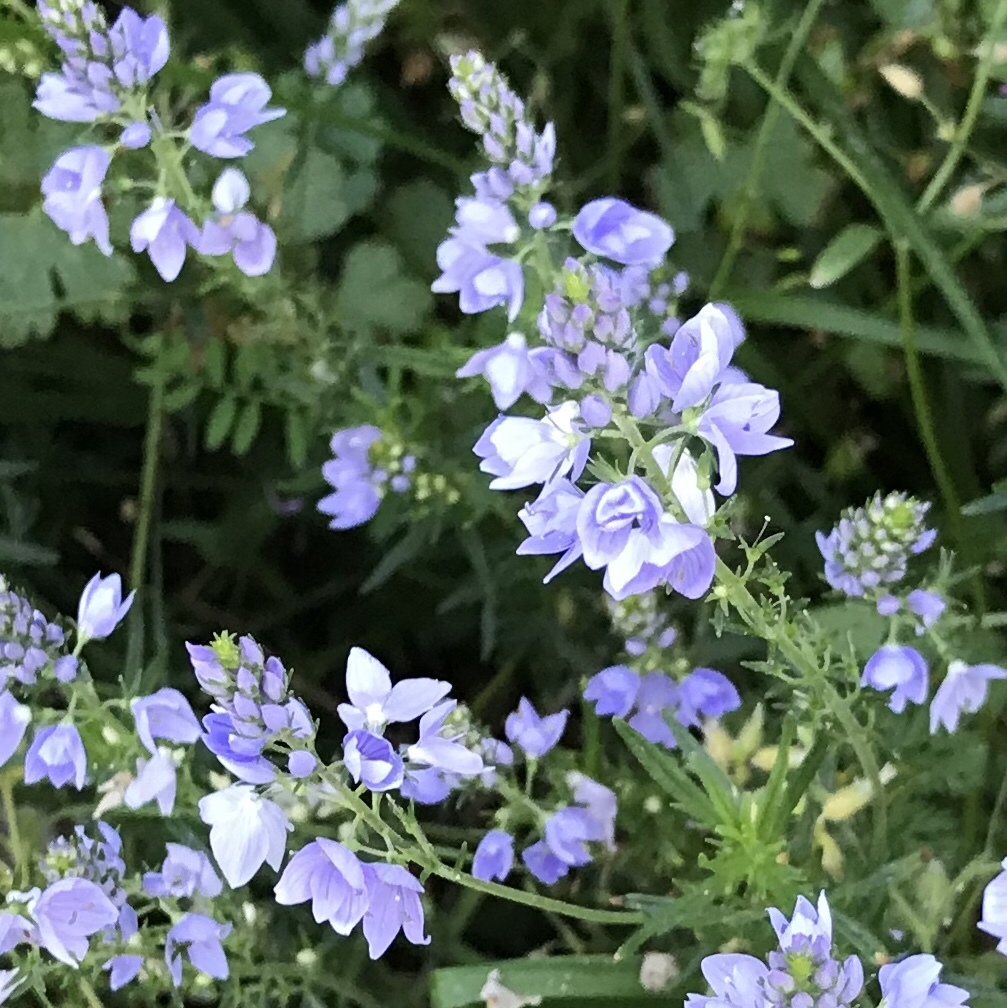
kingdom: Plantae
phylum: Tracheophyta
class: Magnoliopsida
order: Lamiales
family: Plantaginaceae
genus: Veronica
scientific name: Veronica dalmatica
